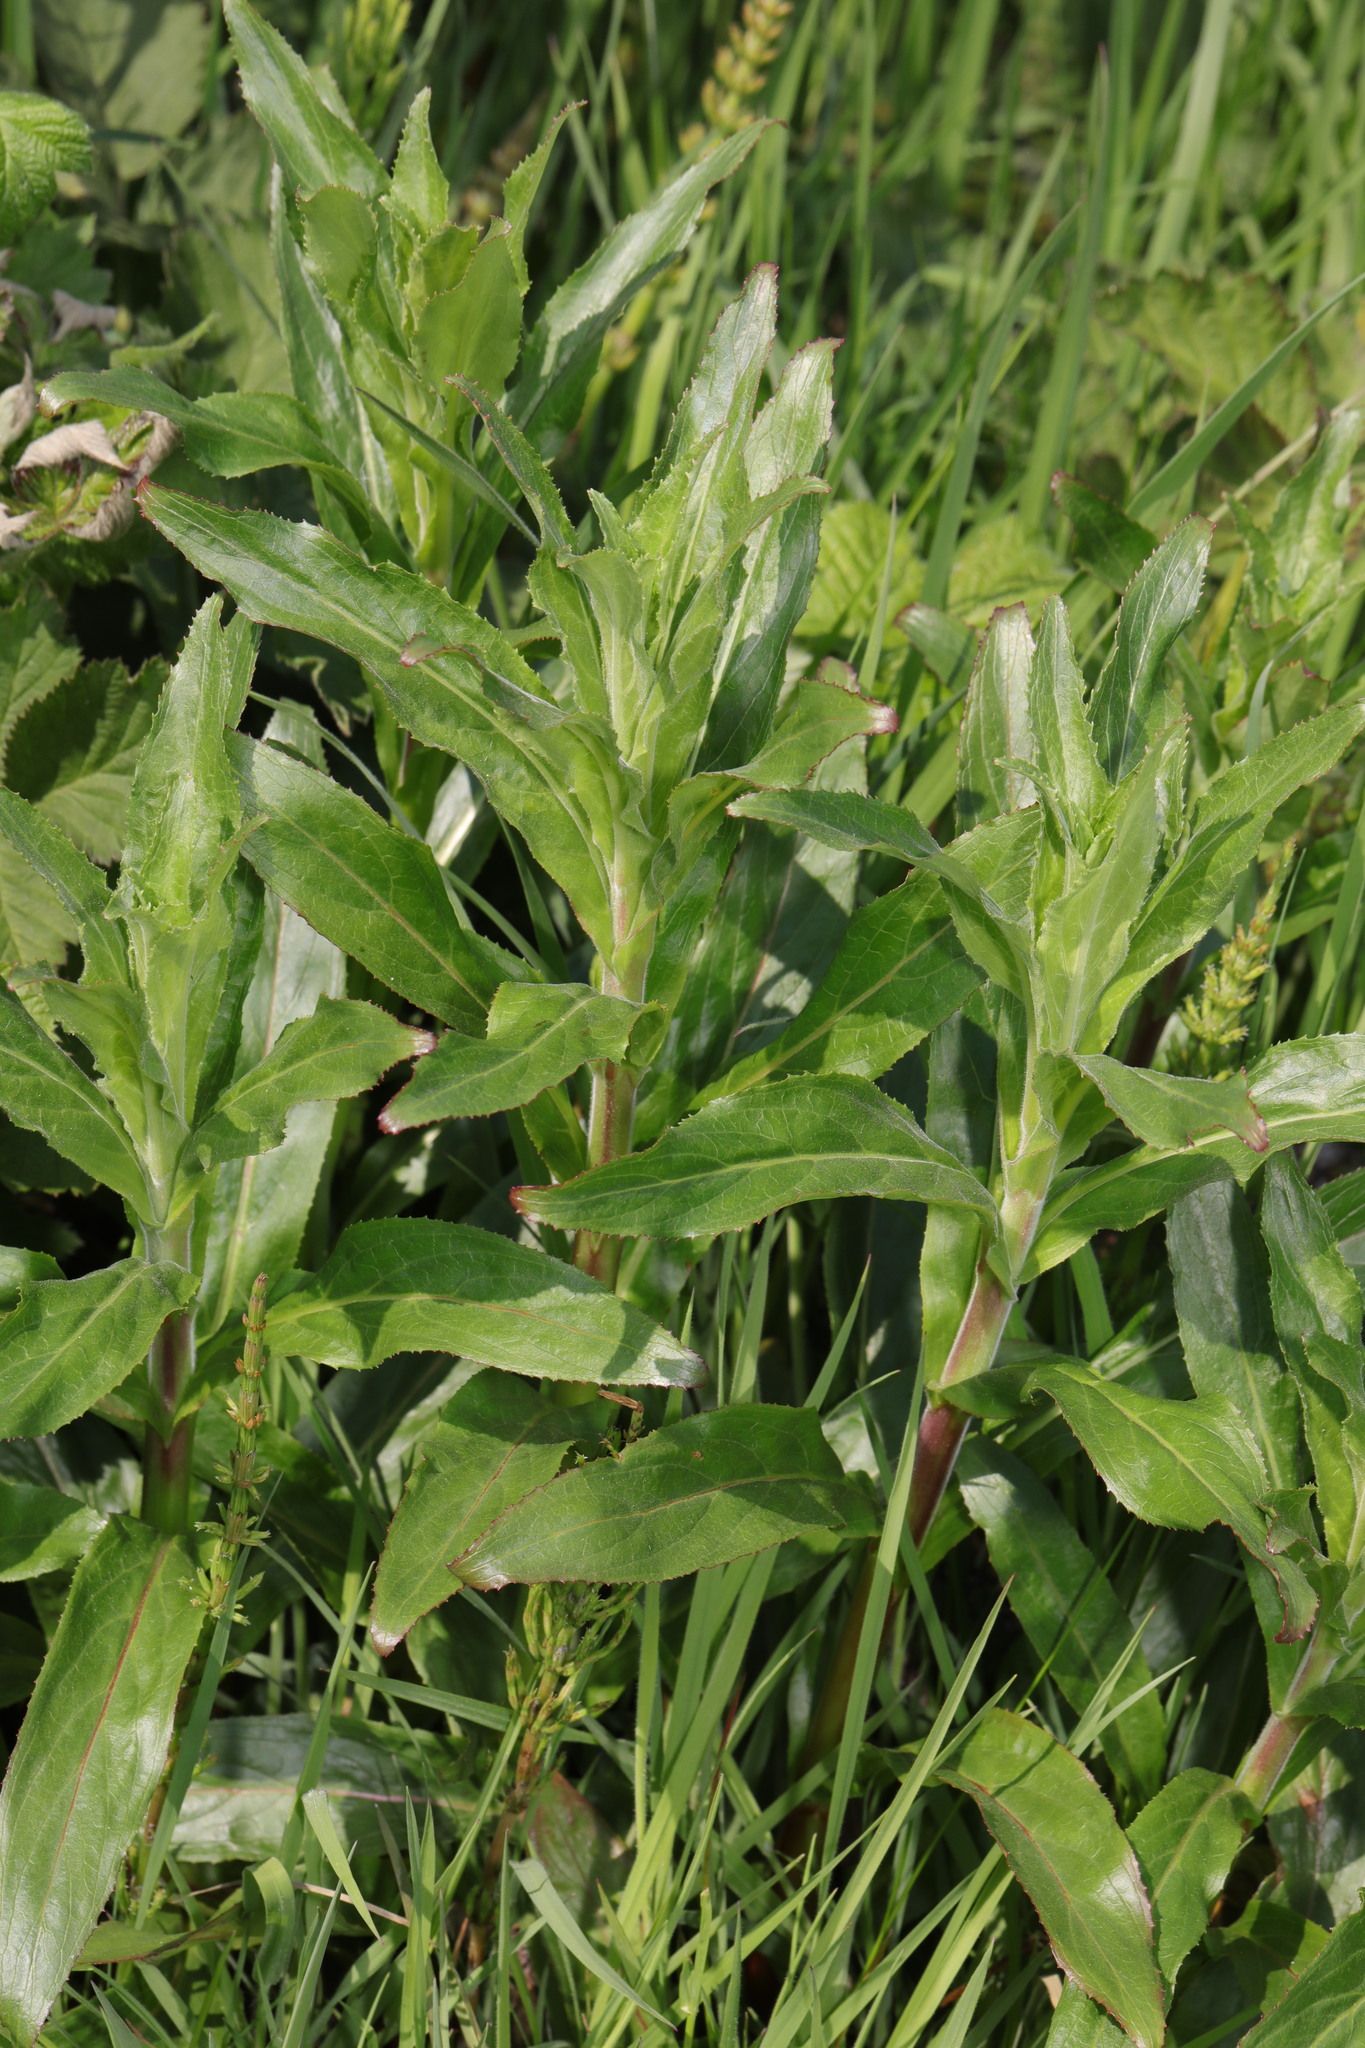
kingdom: Plantae
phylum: Tracheophyta
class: Magnoliopsida
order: Myrtales
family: Onagraceae
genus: Epilobium
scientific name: Epilobium hirsutum
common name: Great willowherb
